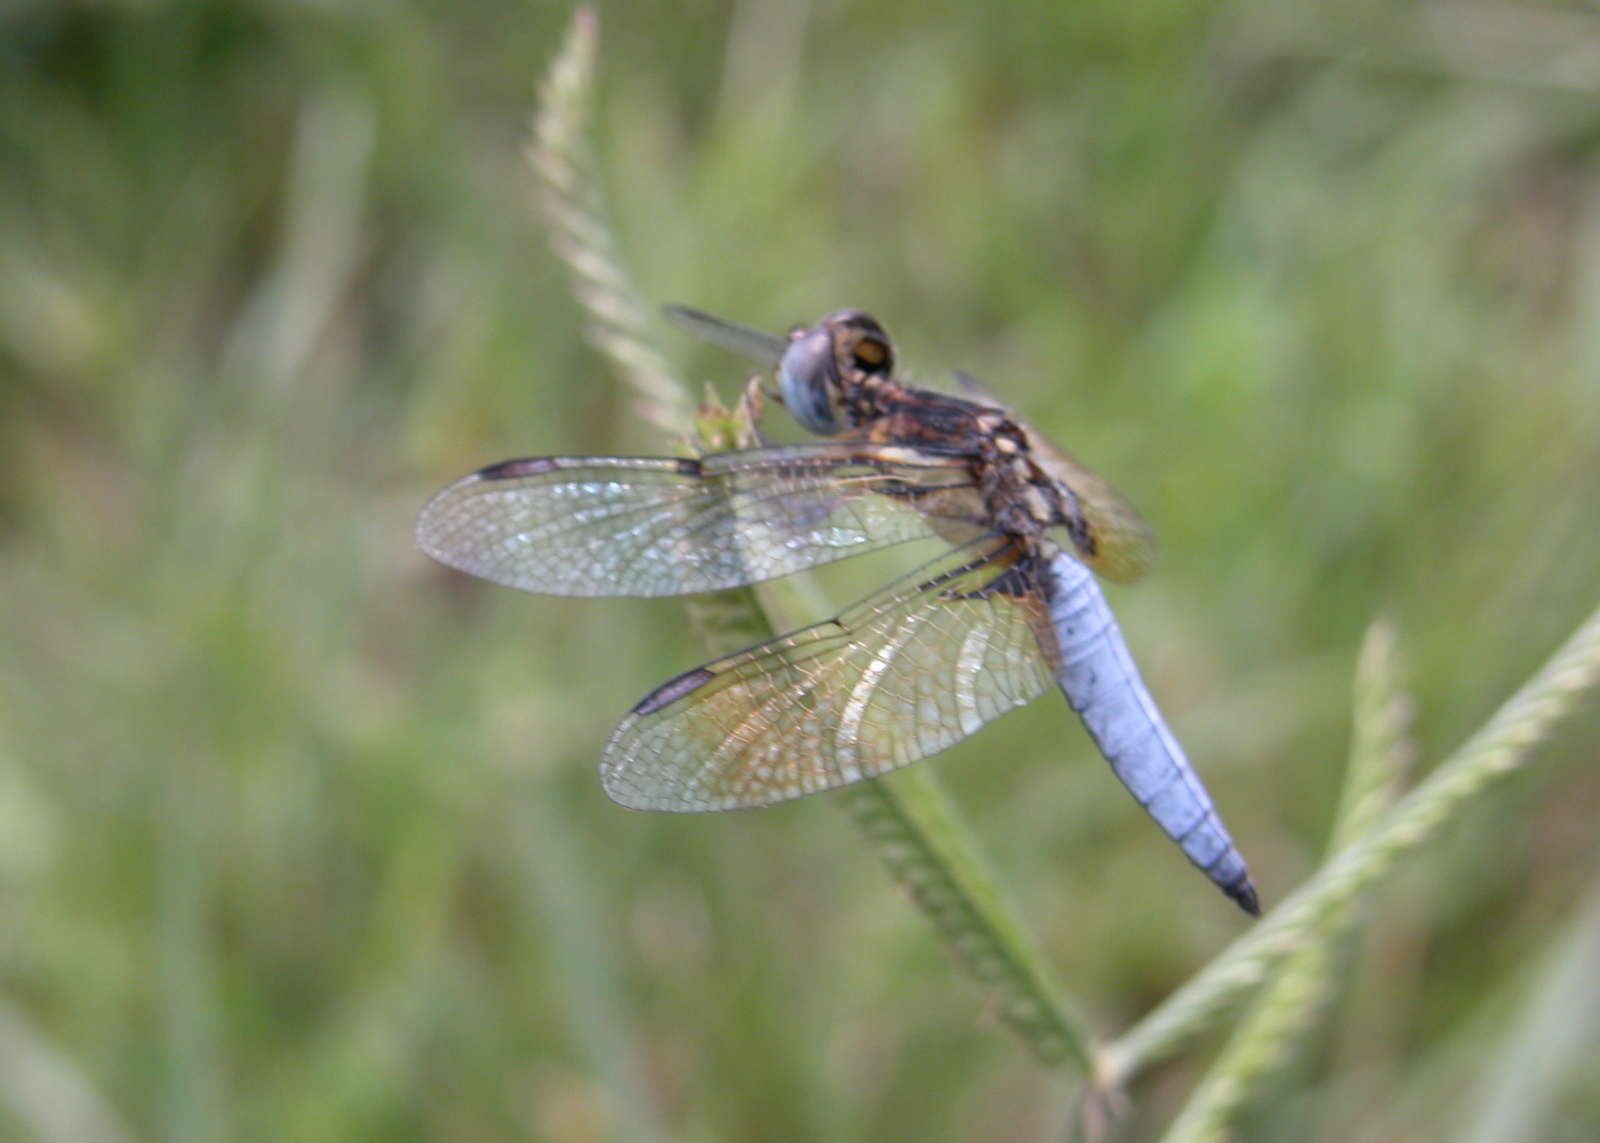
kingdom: Animalia
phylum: Arthropoda
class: Insecta
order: Odonata
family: Libellulidae
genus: Palpopleura
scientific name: Palpopleura sexmaculata
